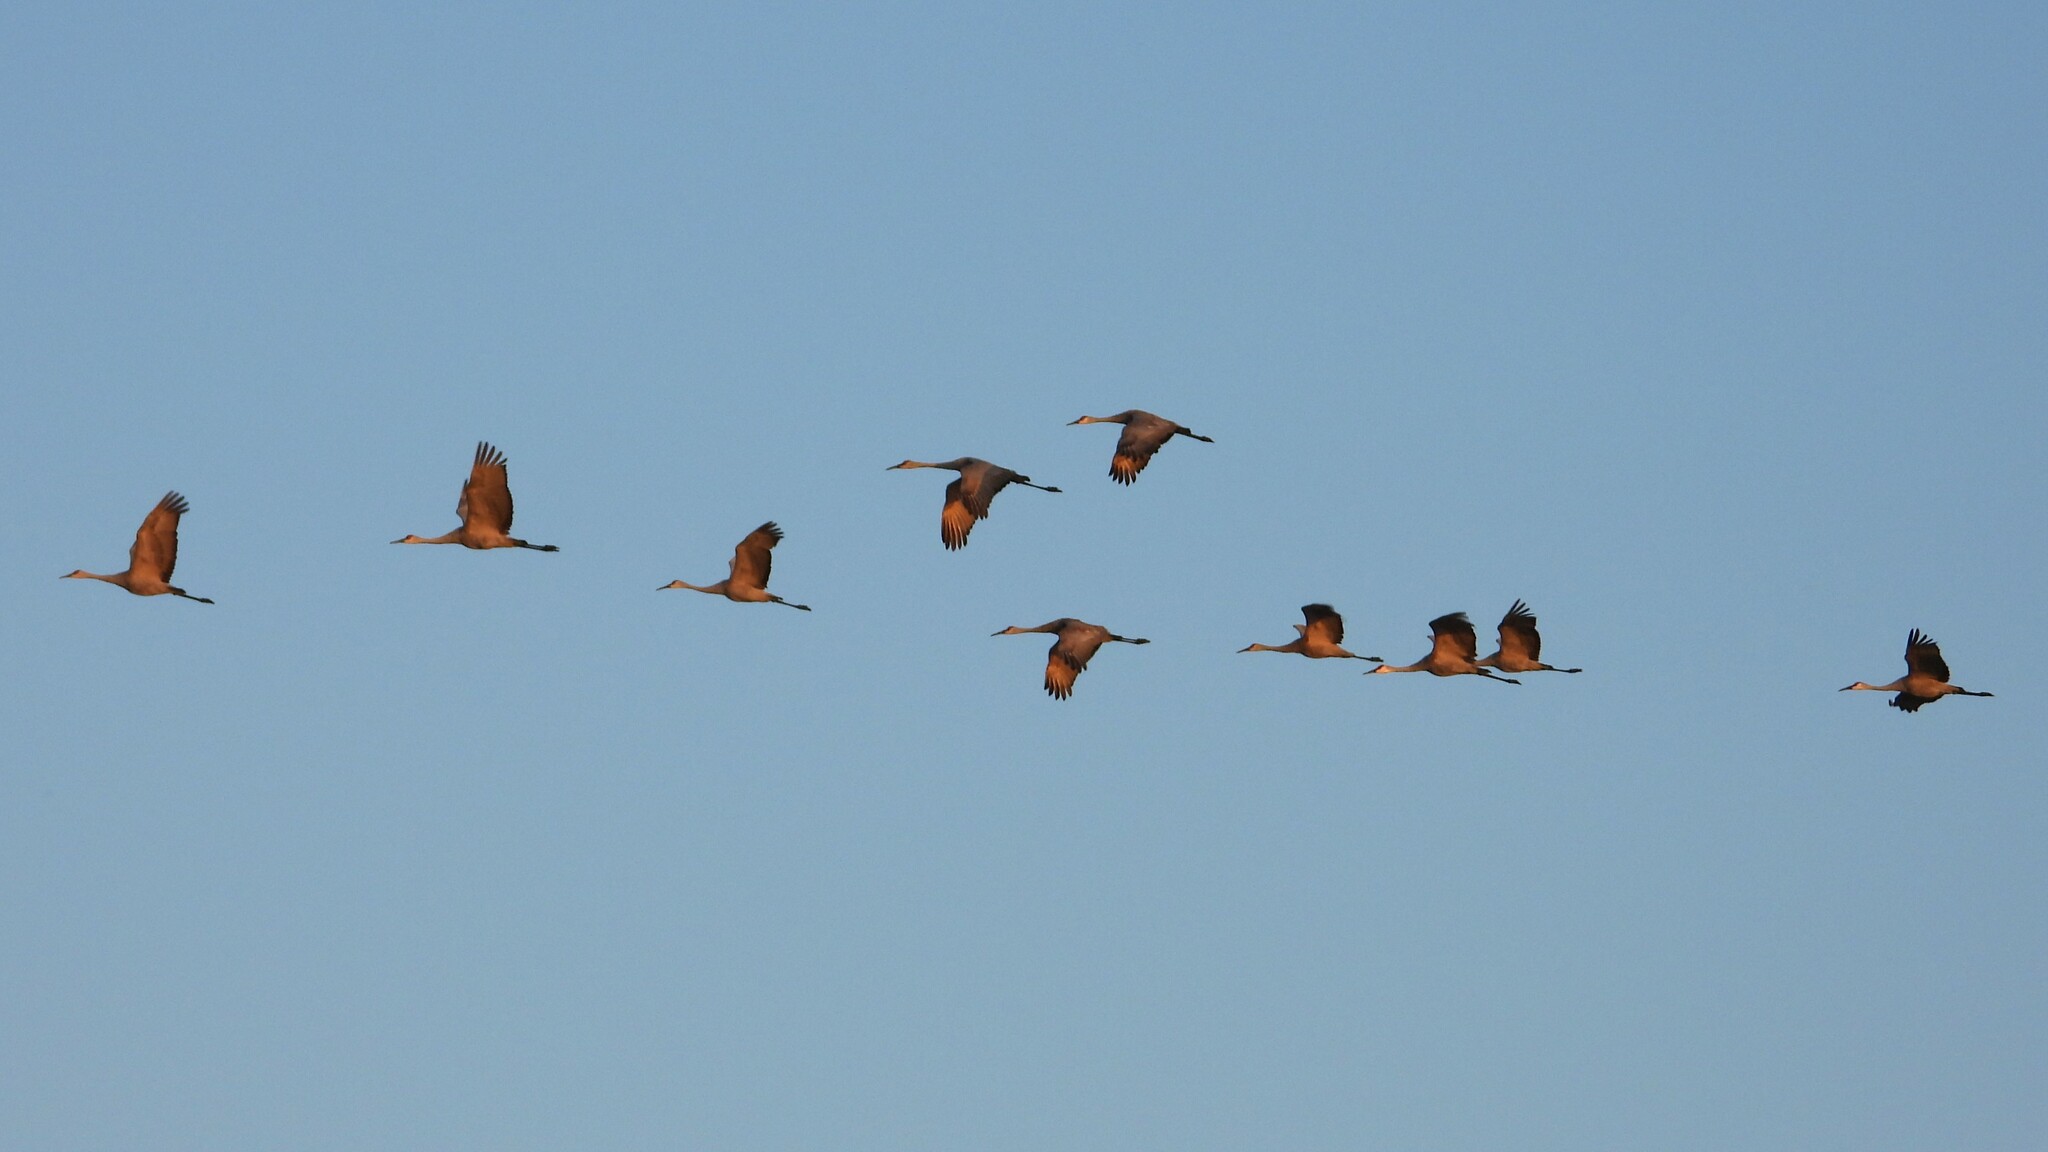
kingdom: Animalia
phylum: Chordata
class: Aves
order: Gruiformes
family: Gruidae
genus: Grus
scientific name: Grus canadensis
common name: Sandhill crane
